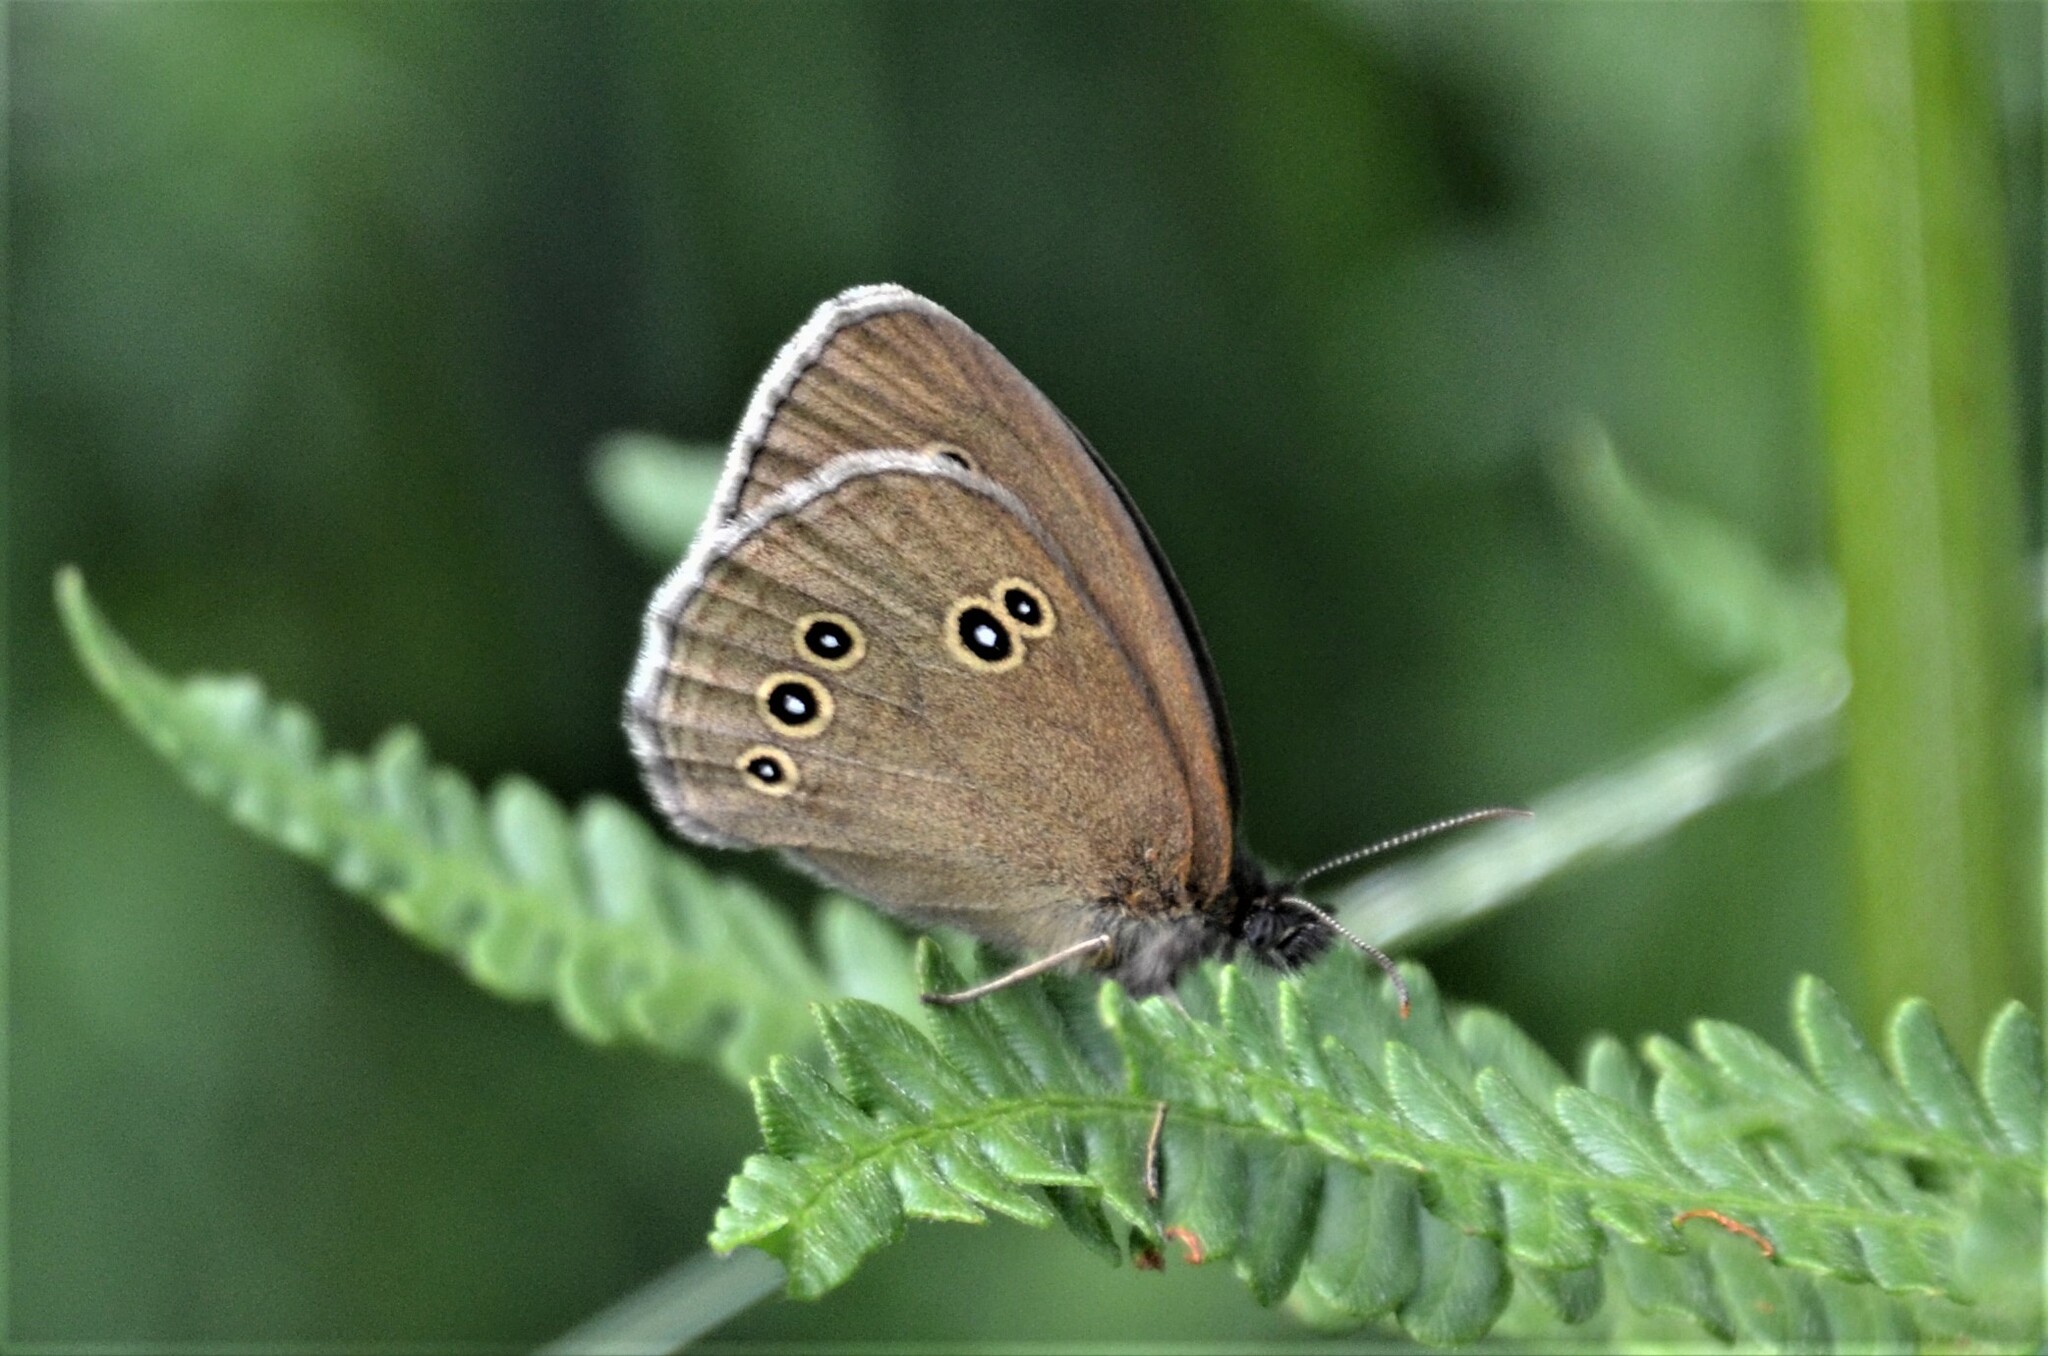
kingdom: Animalia
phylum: Arthropoda
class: Insecta
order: Lepidoptera
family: Nymphalidae
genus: Aphantopus
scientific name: Aphantopus hyperantus
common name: Ringlet
